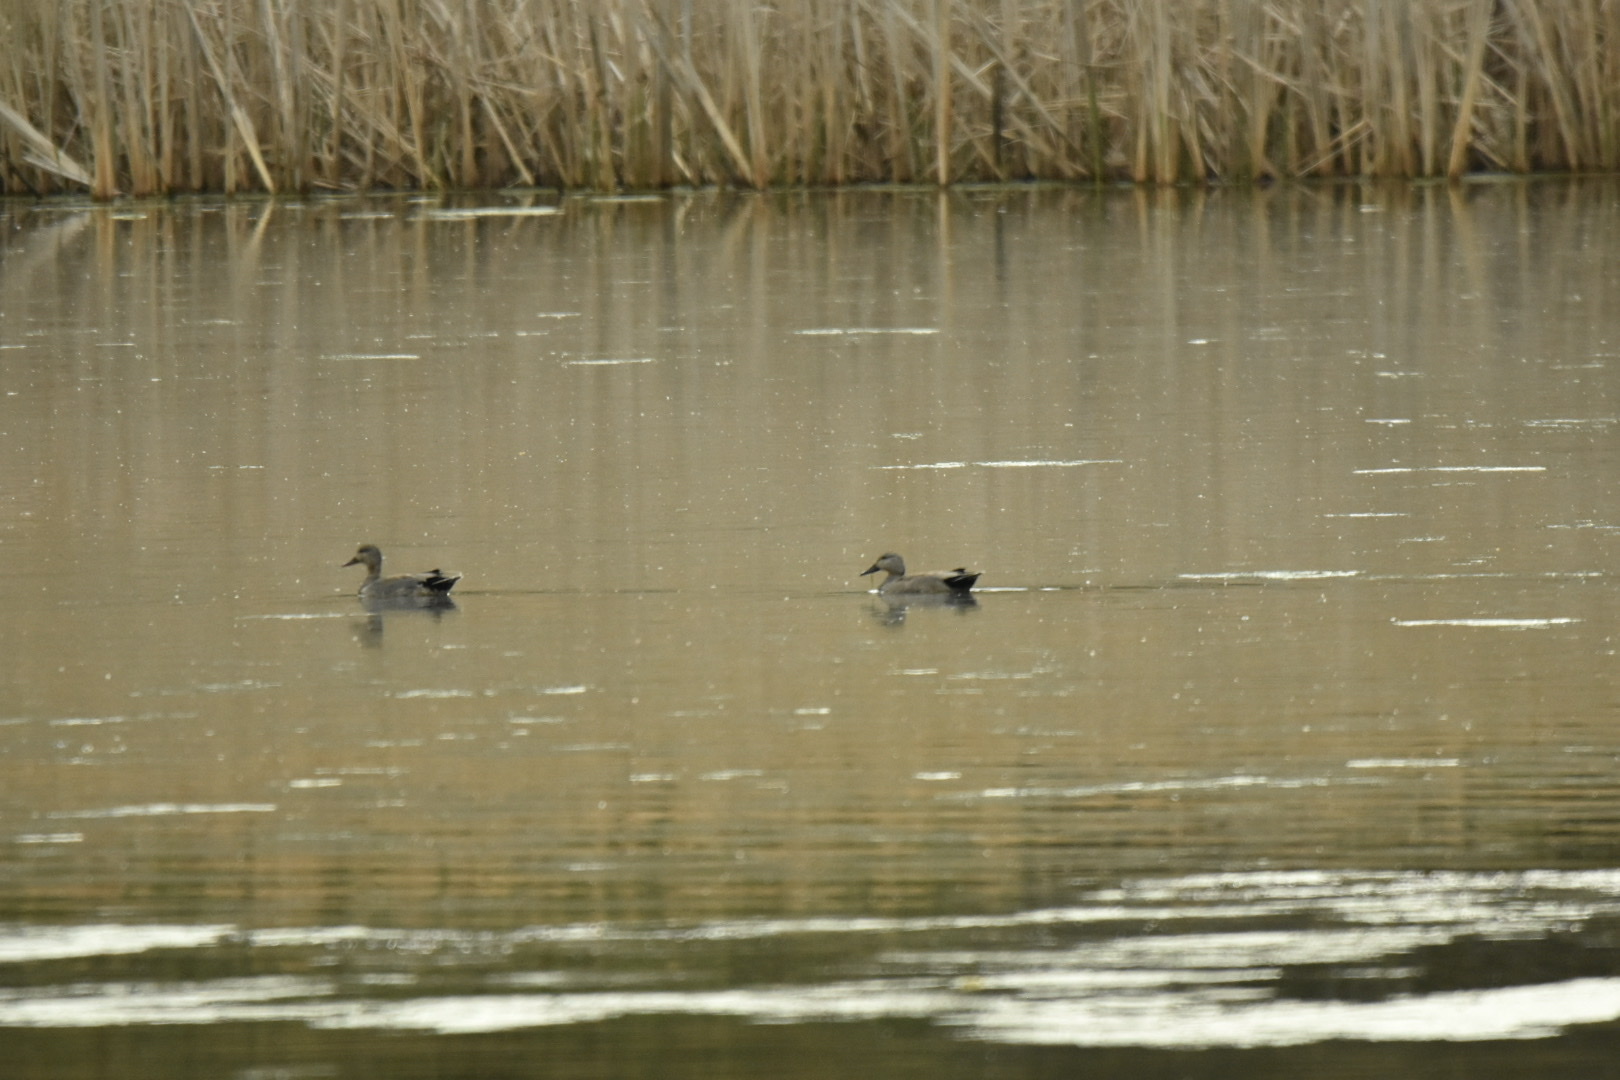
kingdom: Animalia
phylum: Chordata
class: Aves
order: Anseriformes
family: Anatidae
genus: Mareca
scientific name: Mareca strepera
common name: Gadwall
